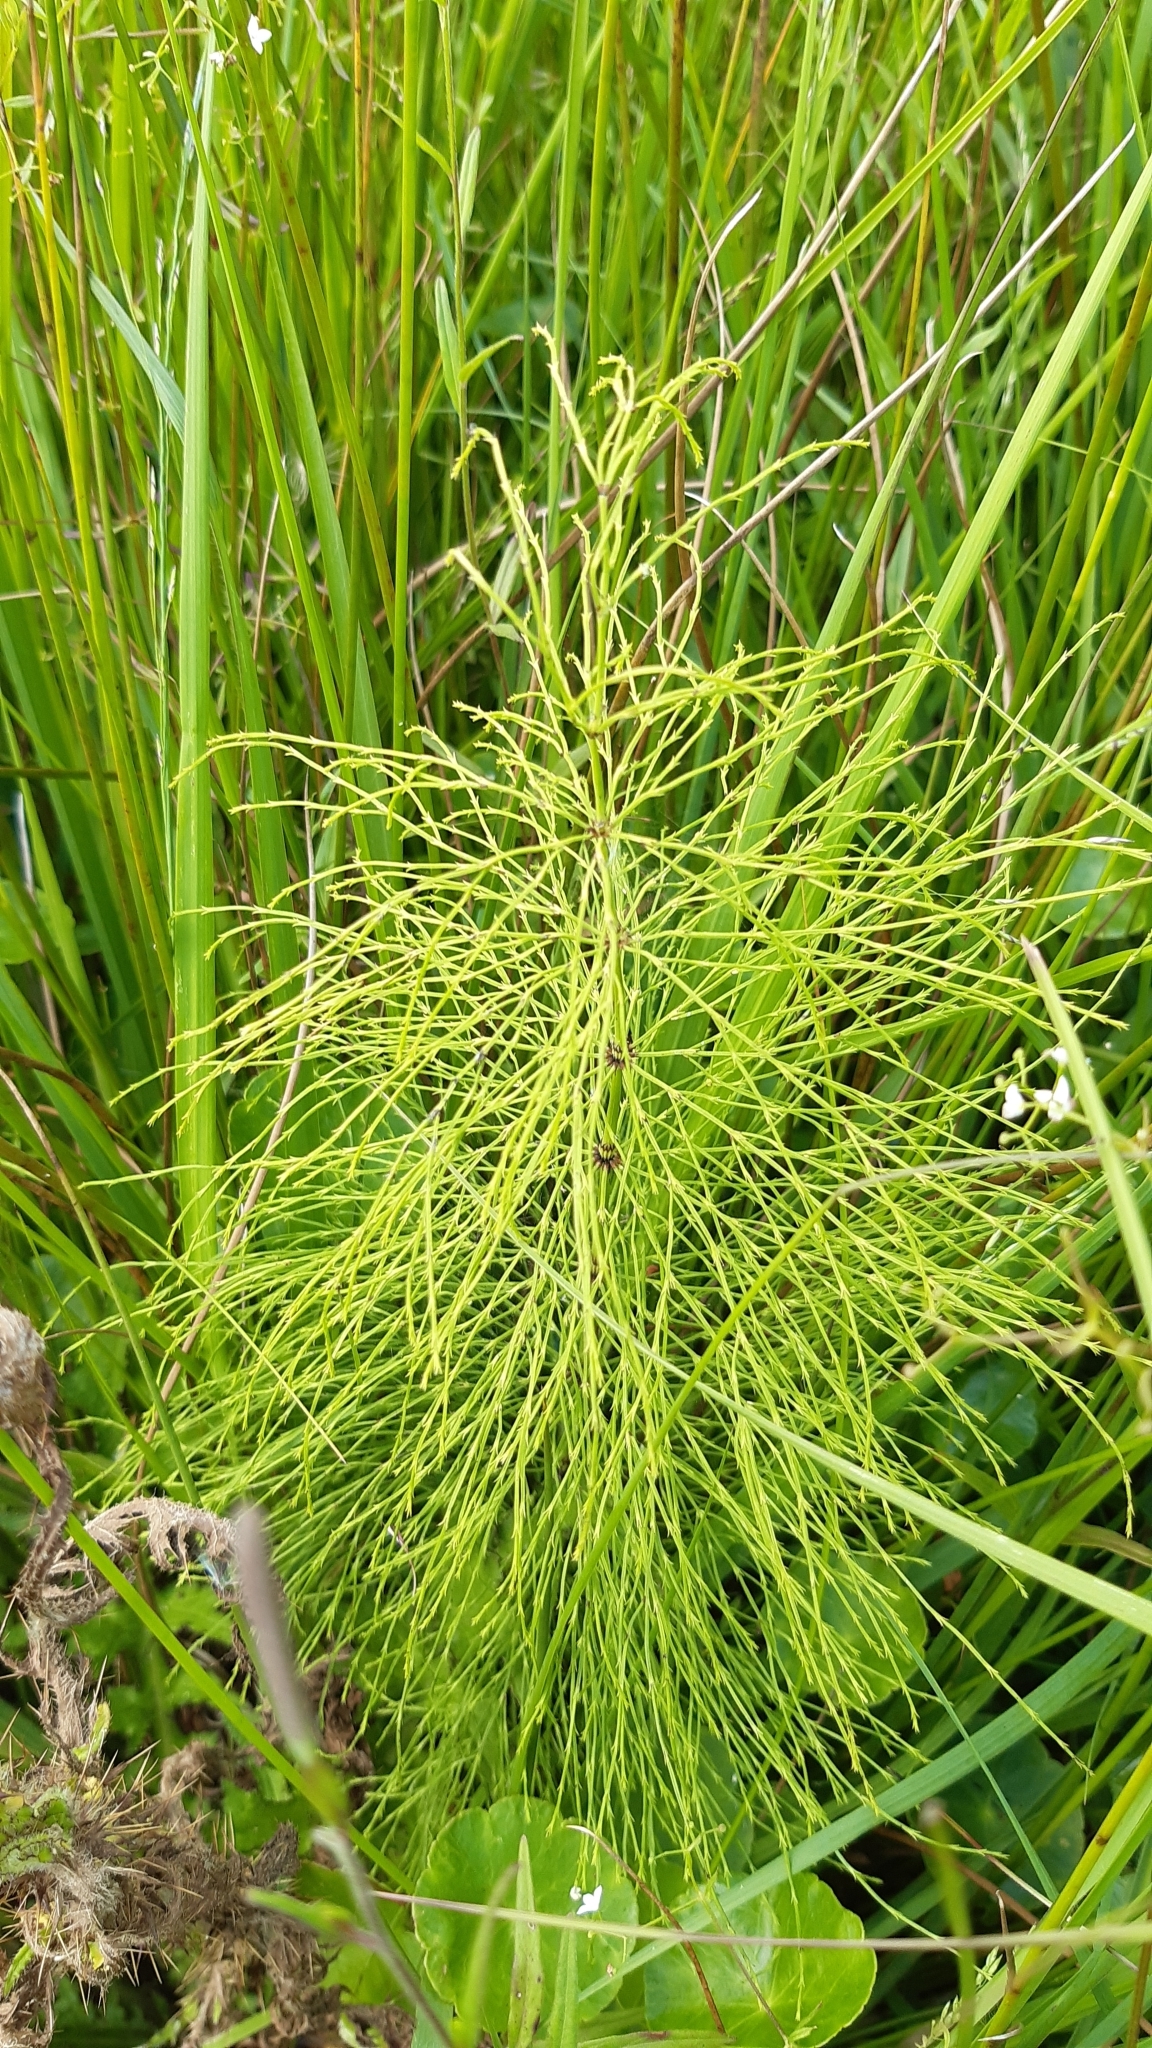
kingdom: Plantae
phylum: Tracheophyta
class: Polypodiopsida
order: Equisetales
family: Equisetaceae
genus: Equisetum
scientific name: Equisetum sylvaticum
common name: Wood horsetail
